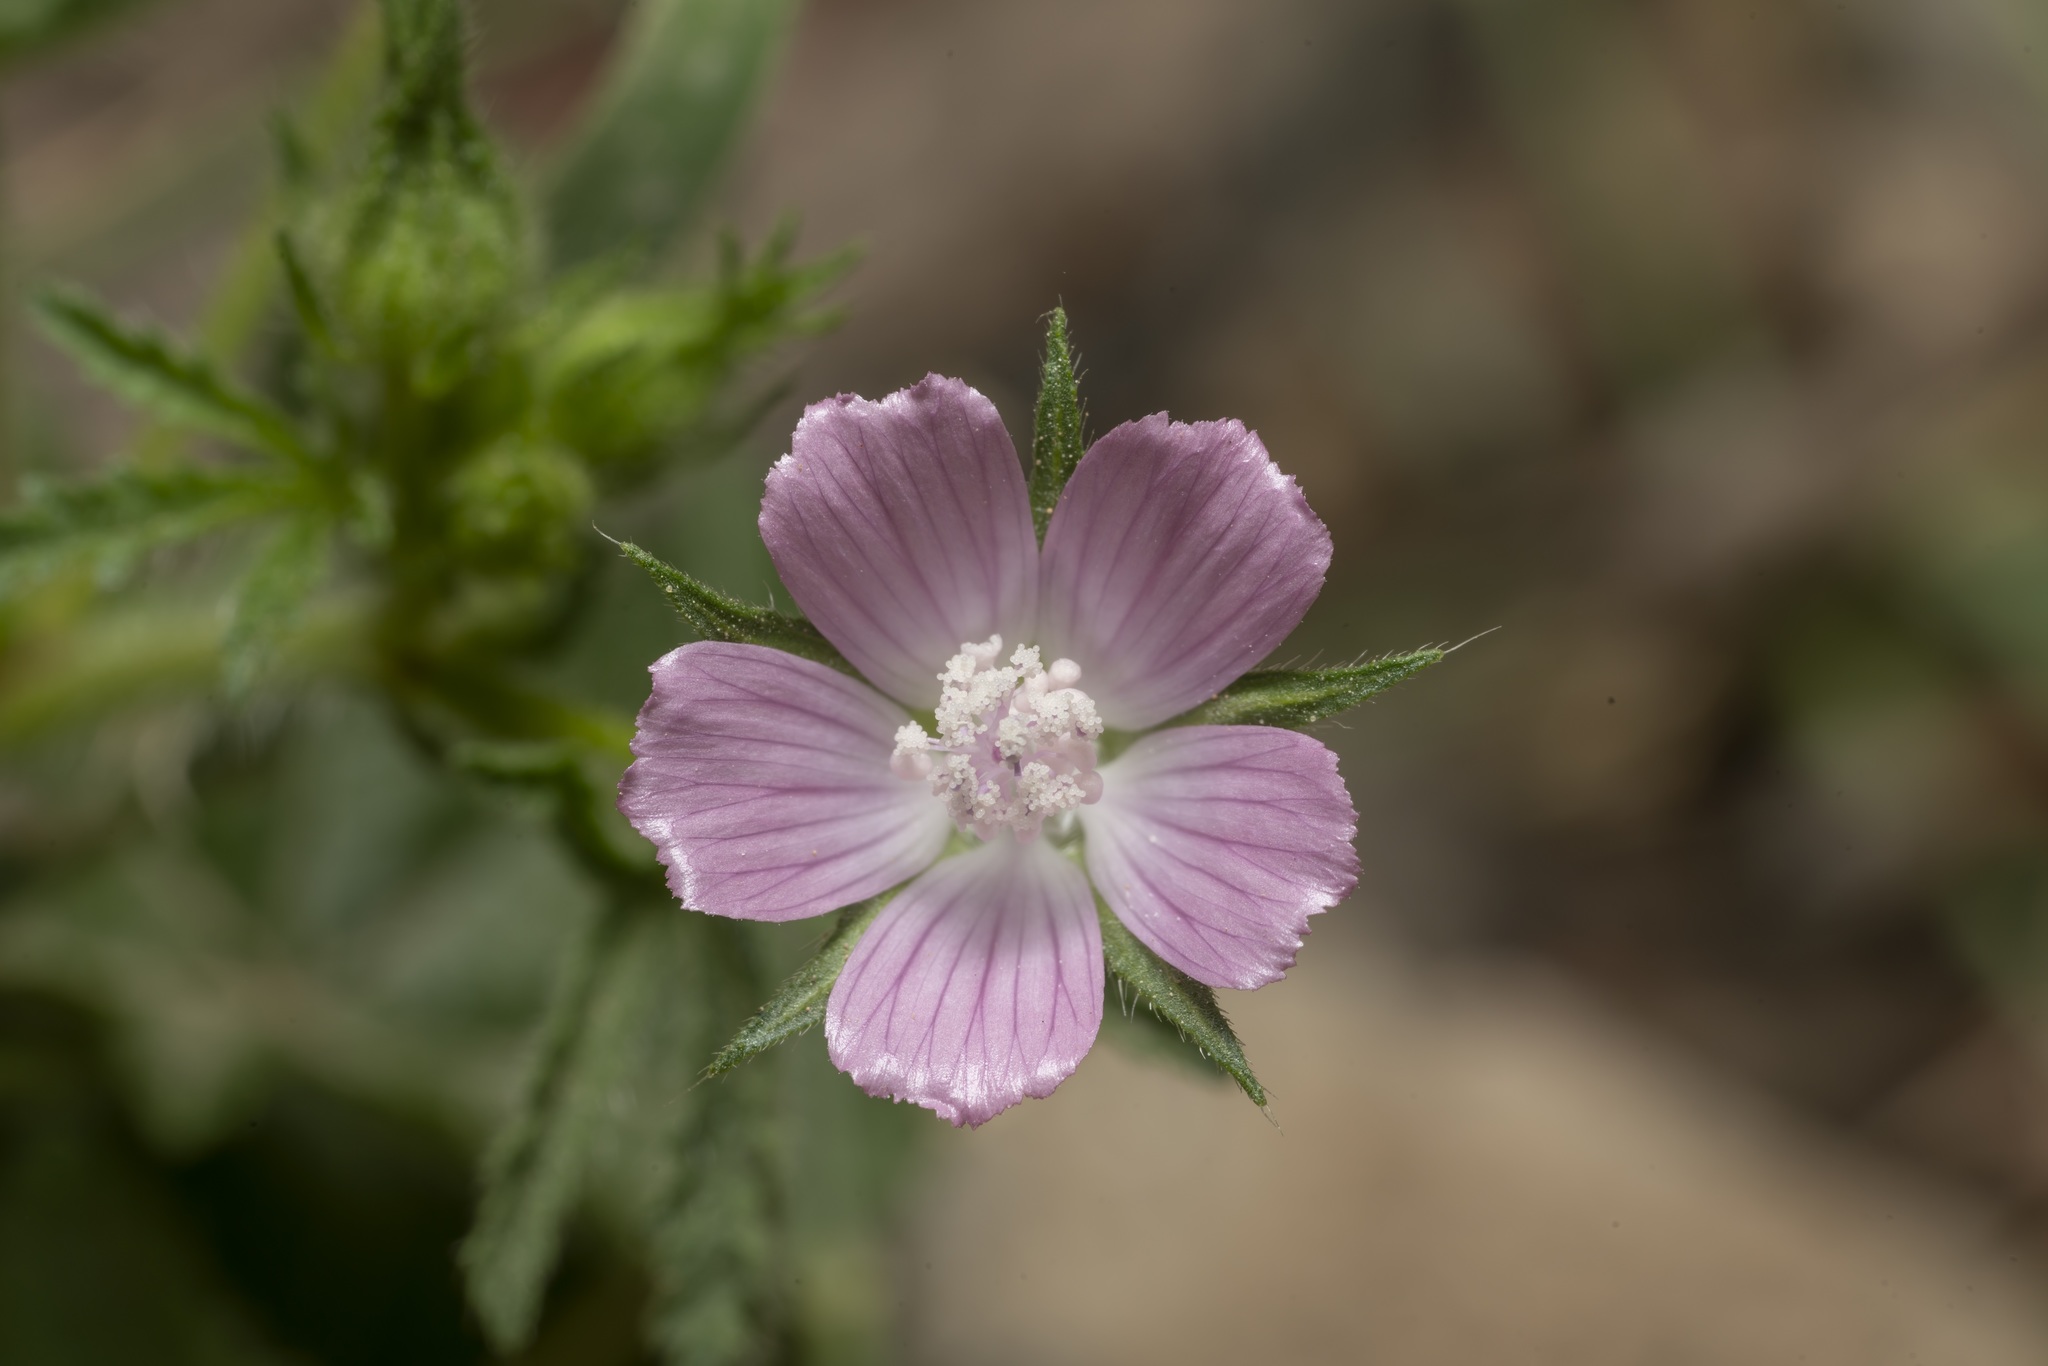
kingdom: Plantae
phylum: Tracheophyta
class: Magnoliopsida
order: Malvales
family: Malvaceae
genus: Malva
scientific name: Malva cretica
